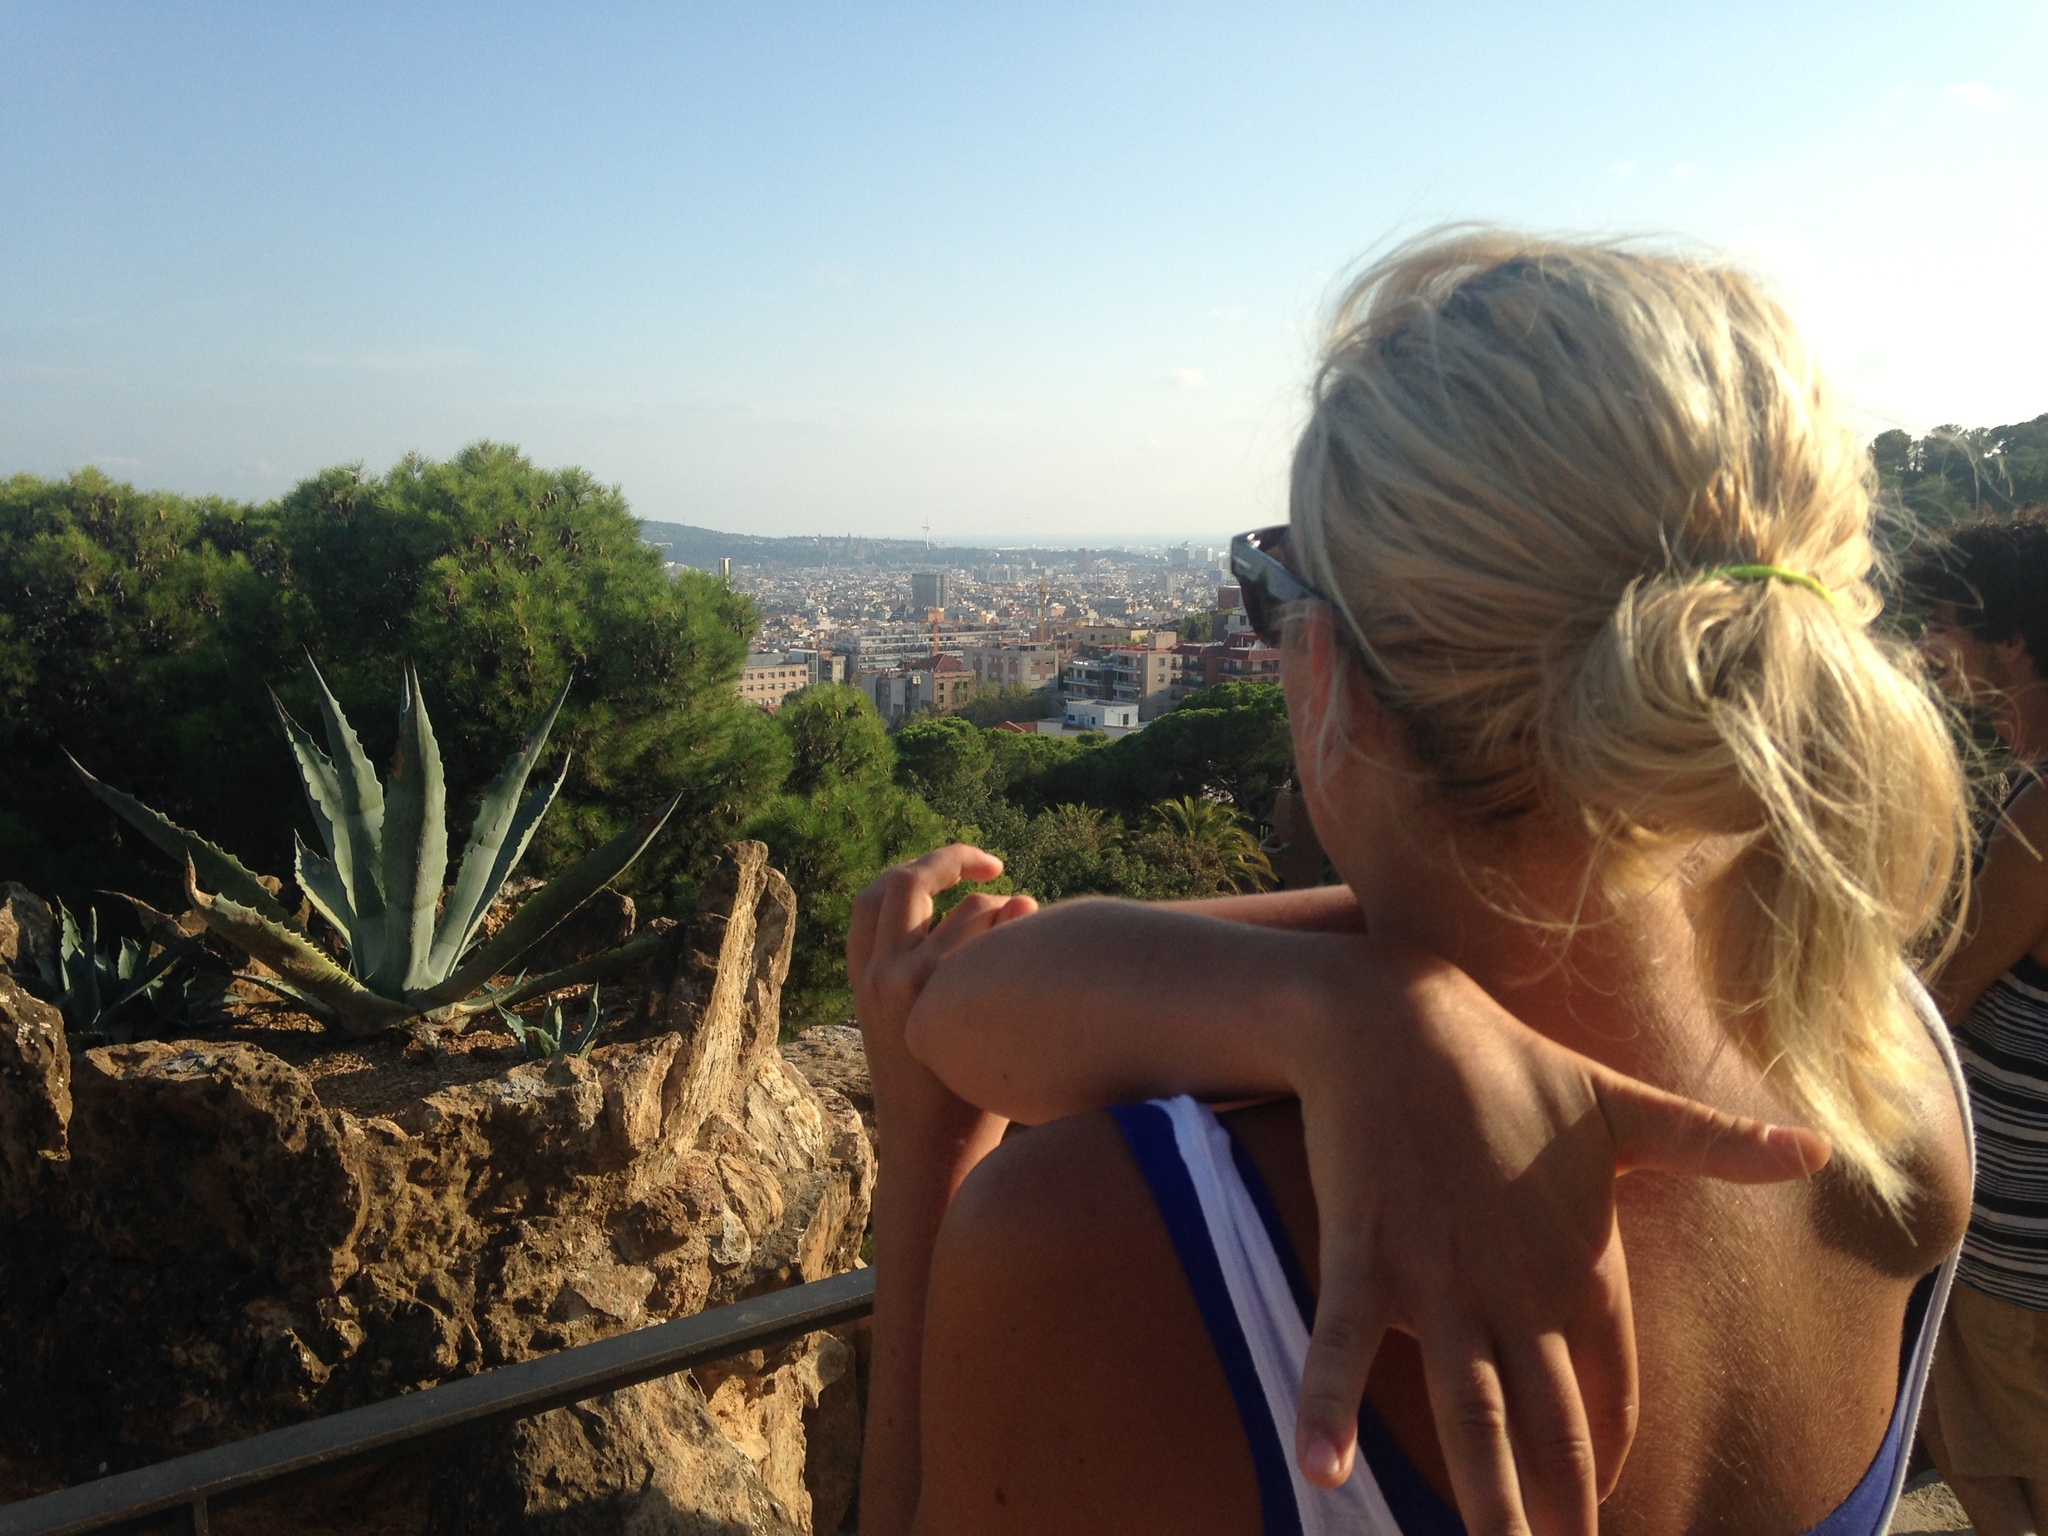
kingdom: Plantae
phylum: Tracheophyta
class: Liliopsida
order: Asparagales
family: Asparagaceae
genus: Agave
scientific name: Agave americana
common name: Centuryplant
